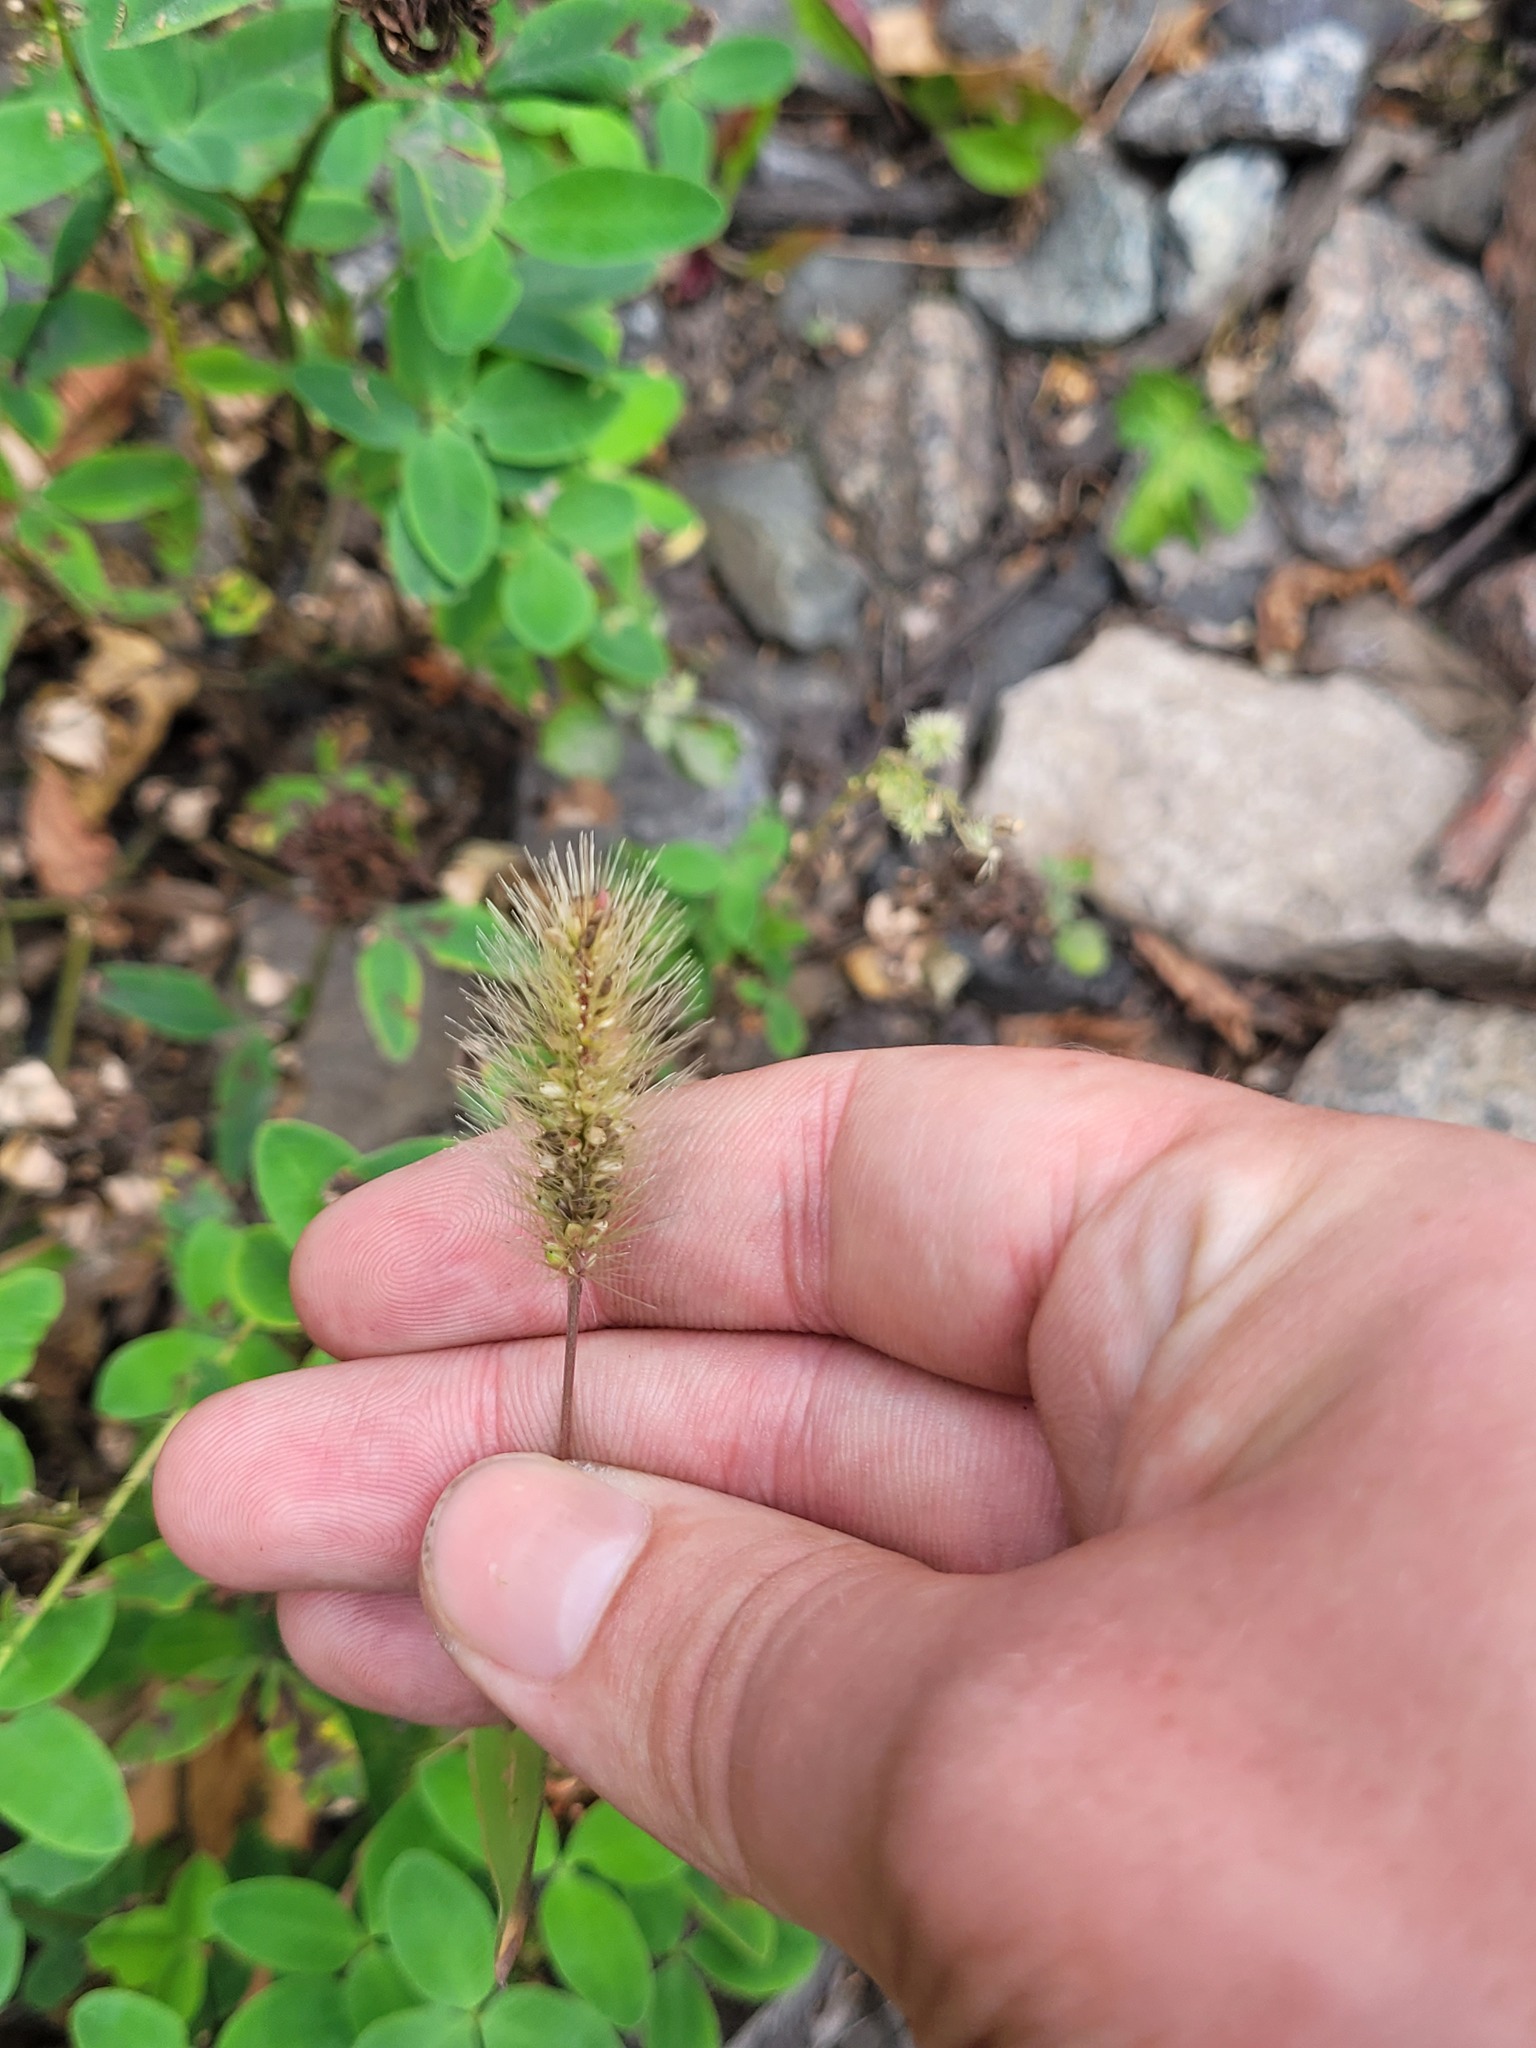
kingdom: Plantae
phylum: Tracheophyta
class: Liliopsida
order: Poales
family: Poaceae
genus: Setaria
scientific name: Setaria viridis
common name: Green bristlegrass
